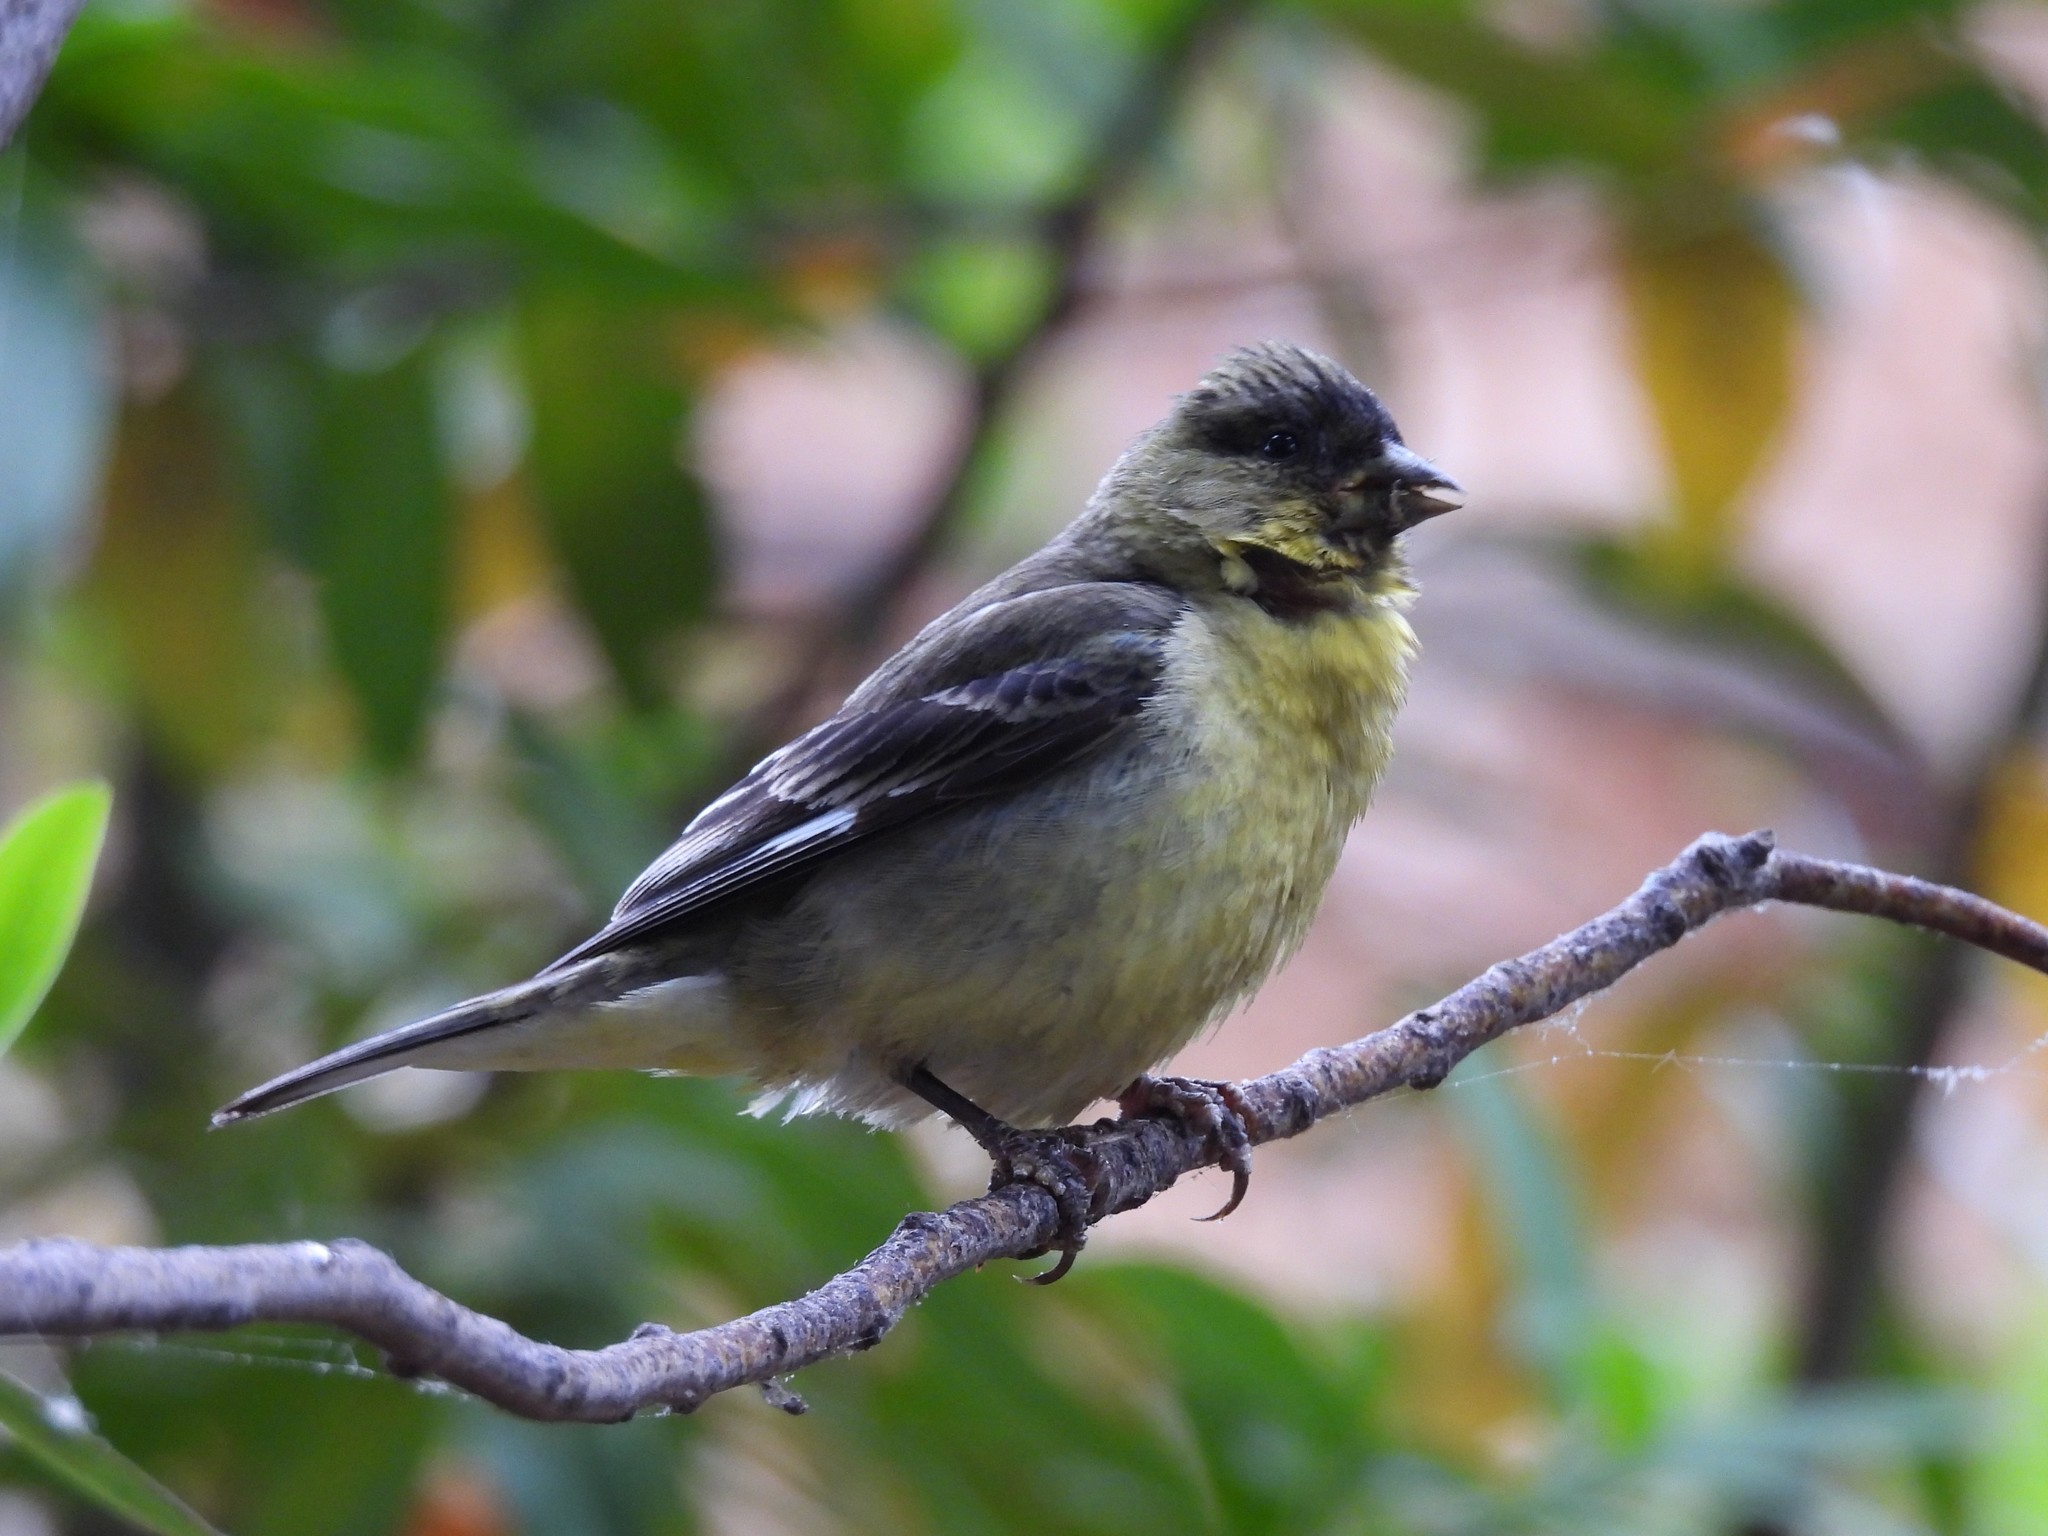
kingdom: Animalia
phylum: Chordata
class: Aves
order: Passeriformes
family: Fringillidae
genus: Spinus
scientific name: Spinus psaltria
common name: Lesser goldfinch
